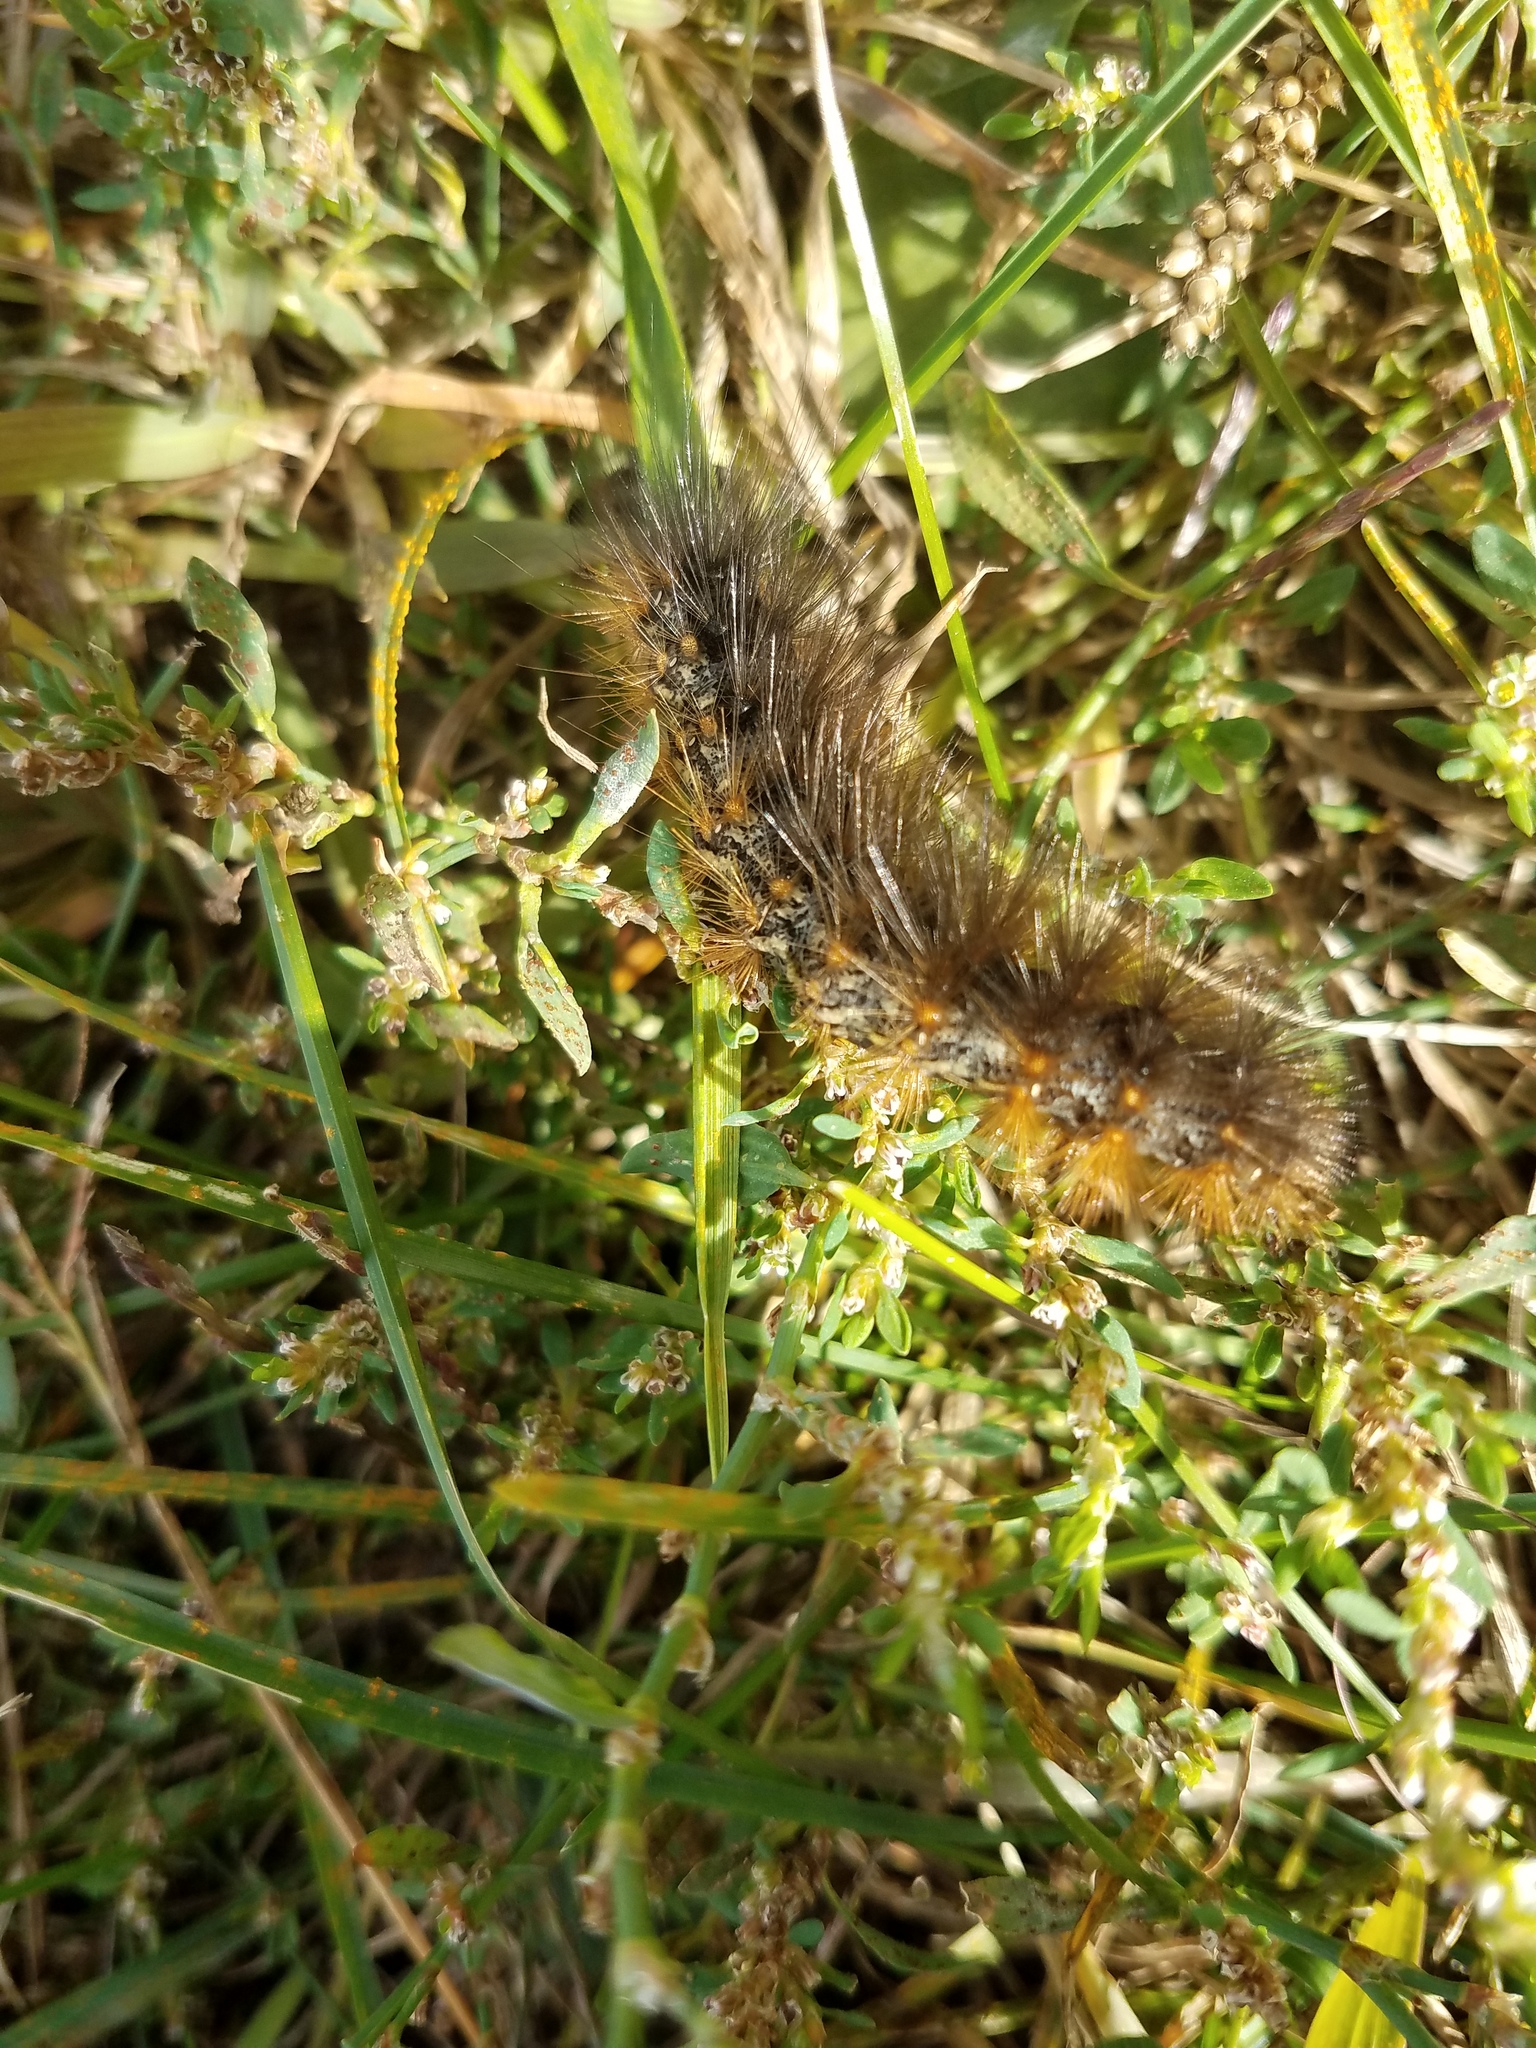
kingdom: Animalia
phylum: Arthropoda
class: Insecta
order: Lepidoptera
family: Erebidae
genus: Estigmene
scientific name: Estigmene acrea
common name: Salt marsh moth
